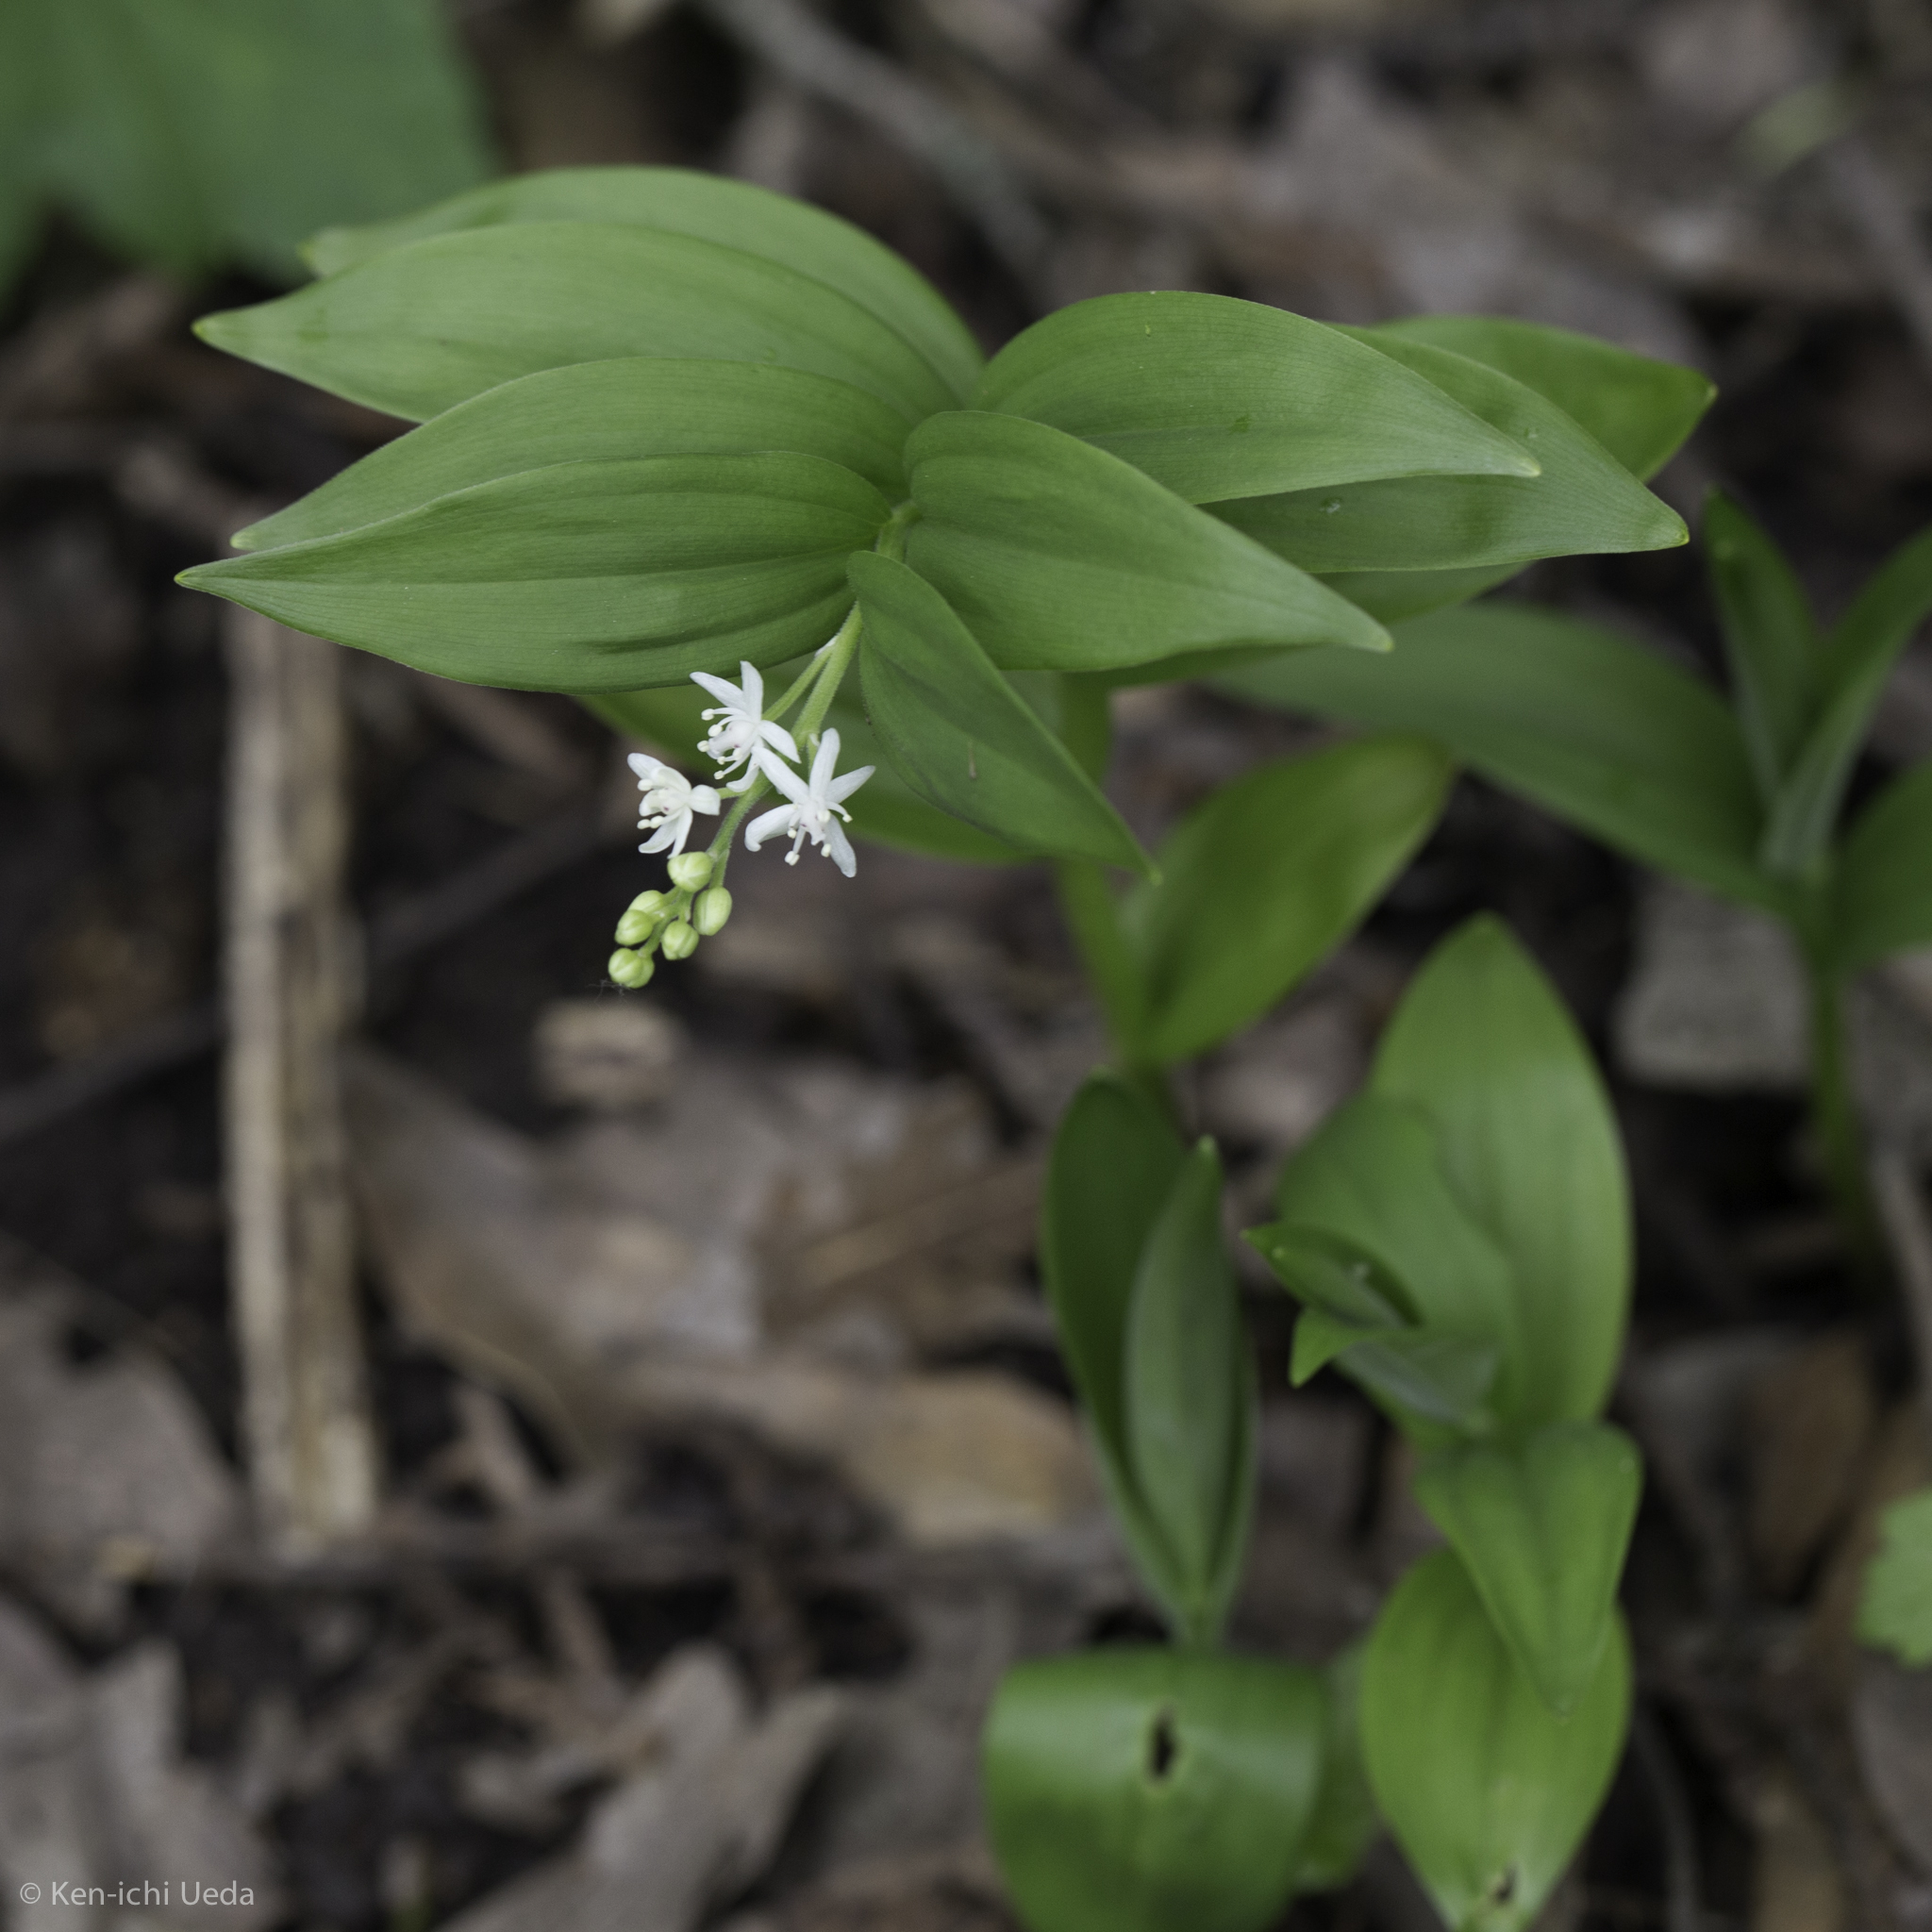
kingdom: Plantae
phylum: Tracheophyta
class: Liliopsida
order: Asparagales
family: Asparagaceae
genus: Maianthemum
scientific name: Maianthemum stellatum
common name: Little false solomon's seal
